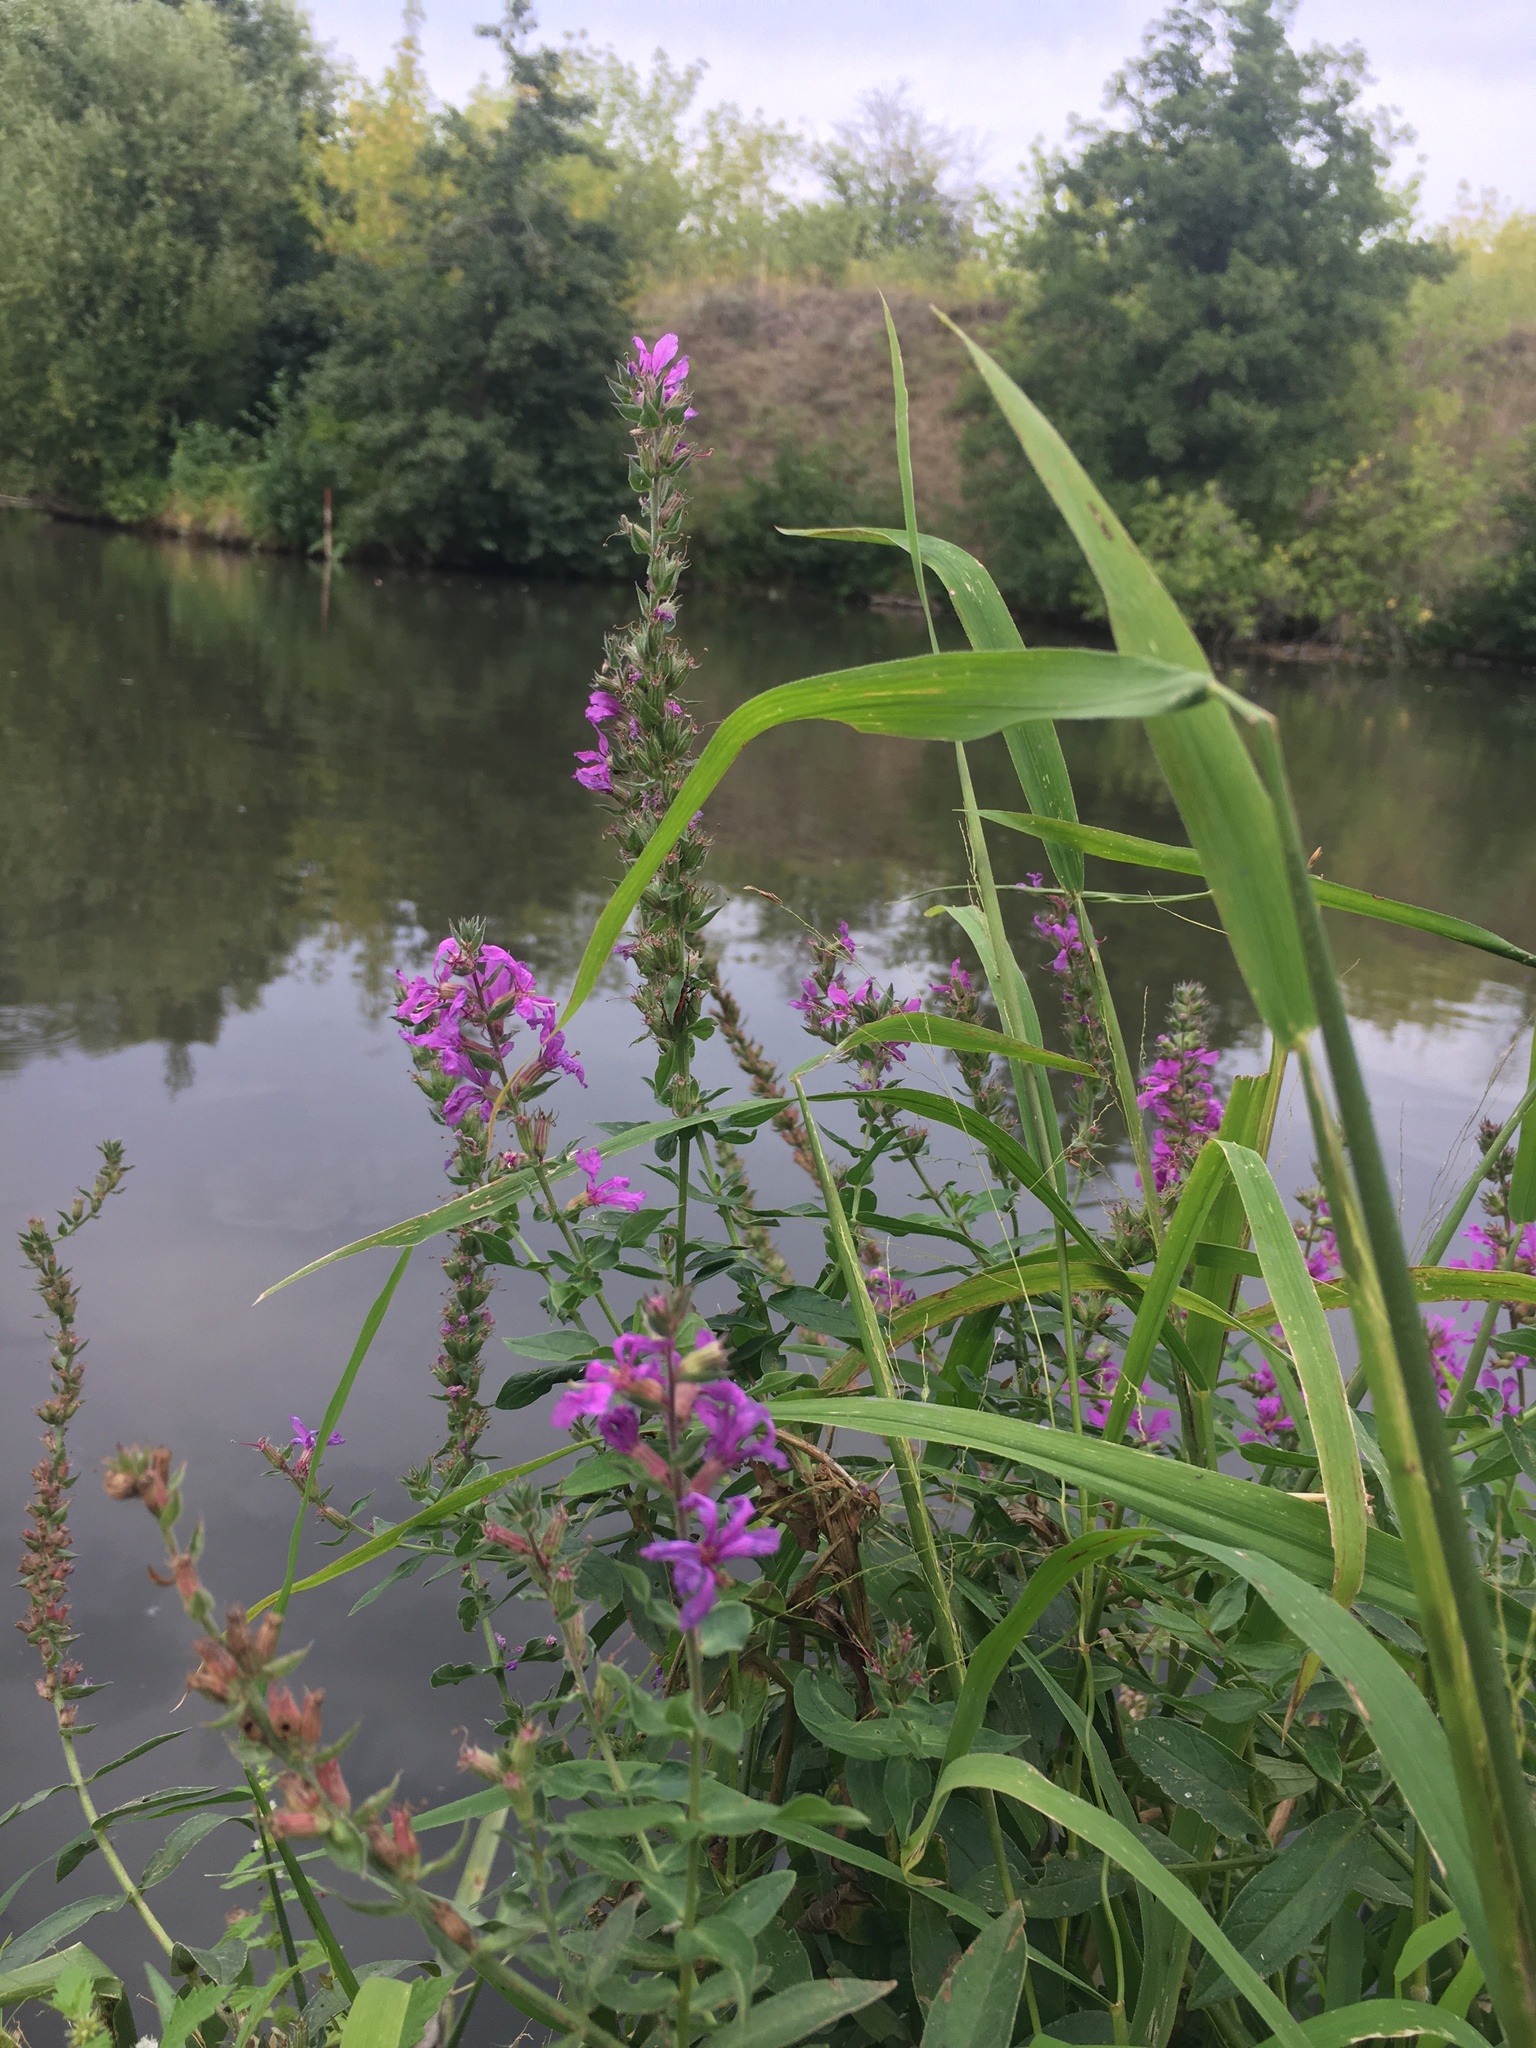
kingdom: Plantae
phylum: Tracheophyta
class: Magnoliopsida
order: Myrtales
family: Lythraceae
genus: Lythrum
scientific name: Lythrum salicaria
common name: Purple loosestrife
